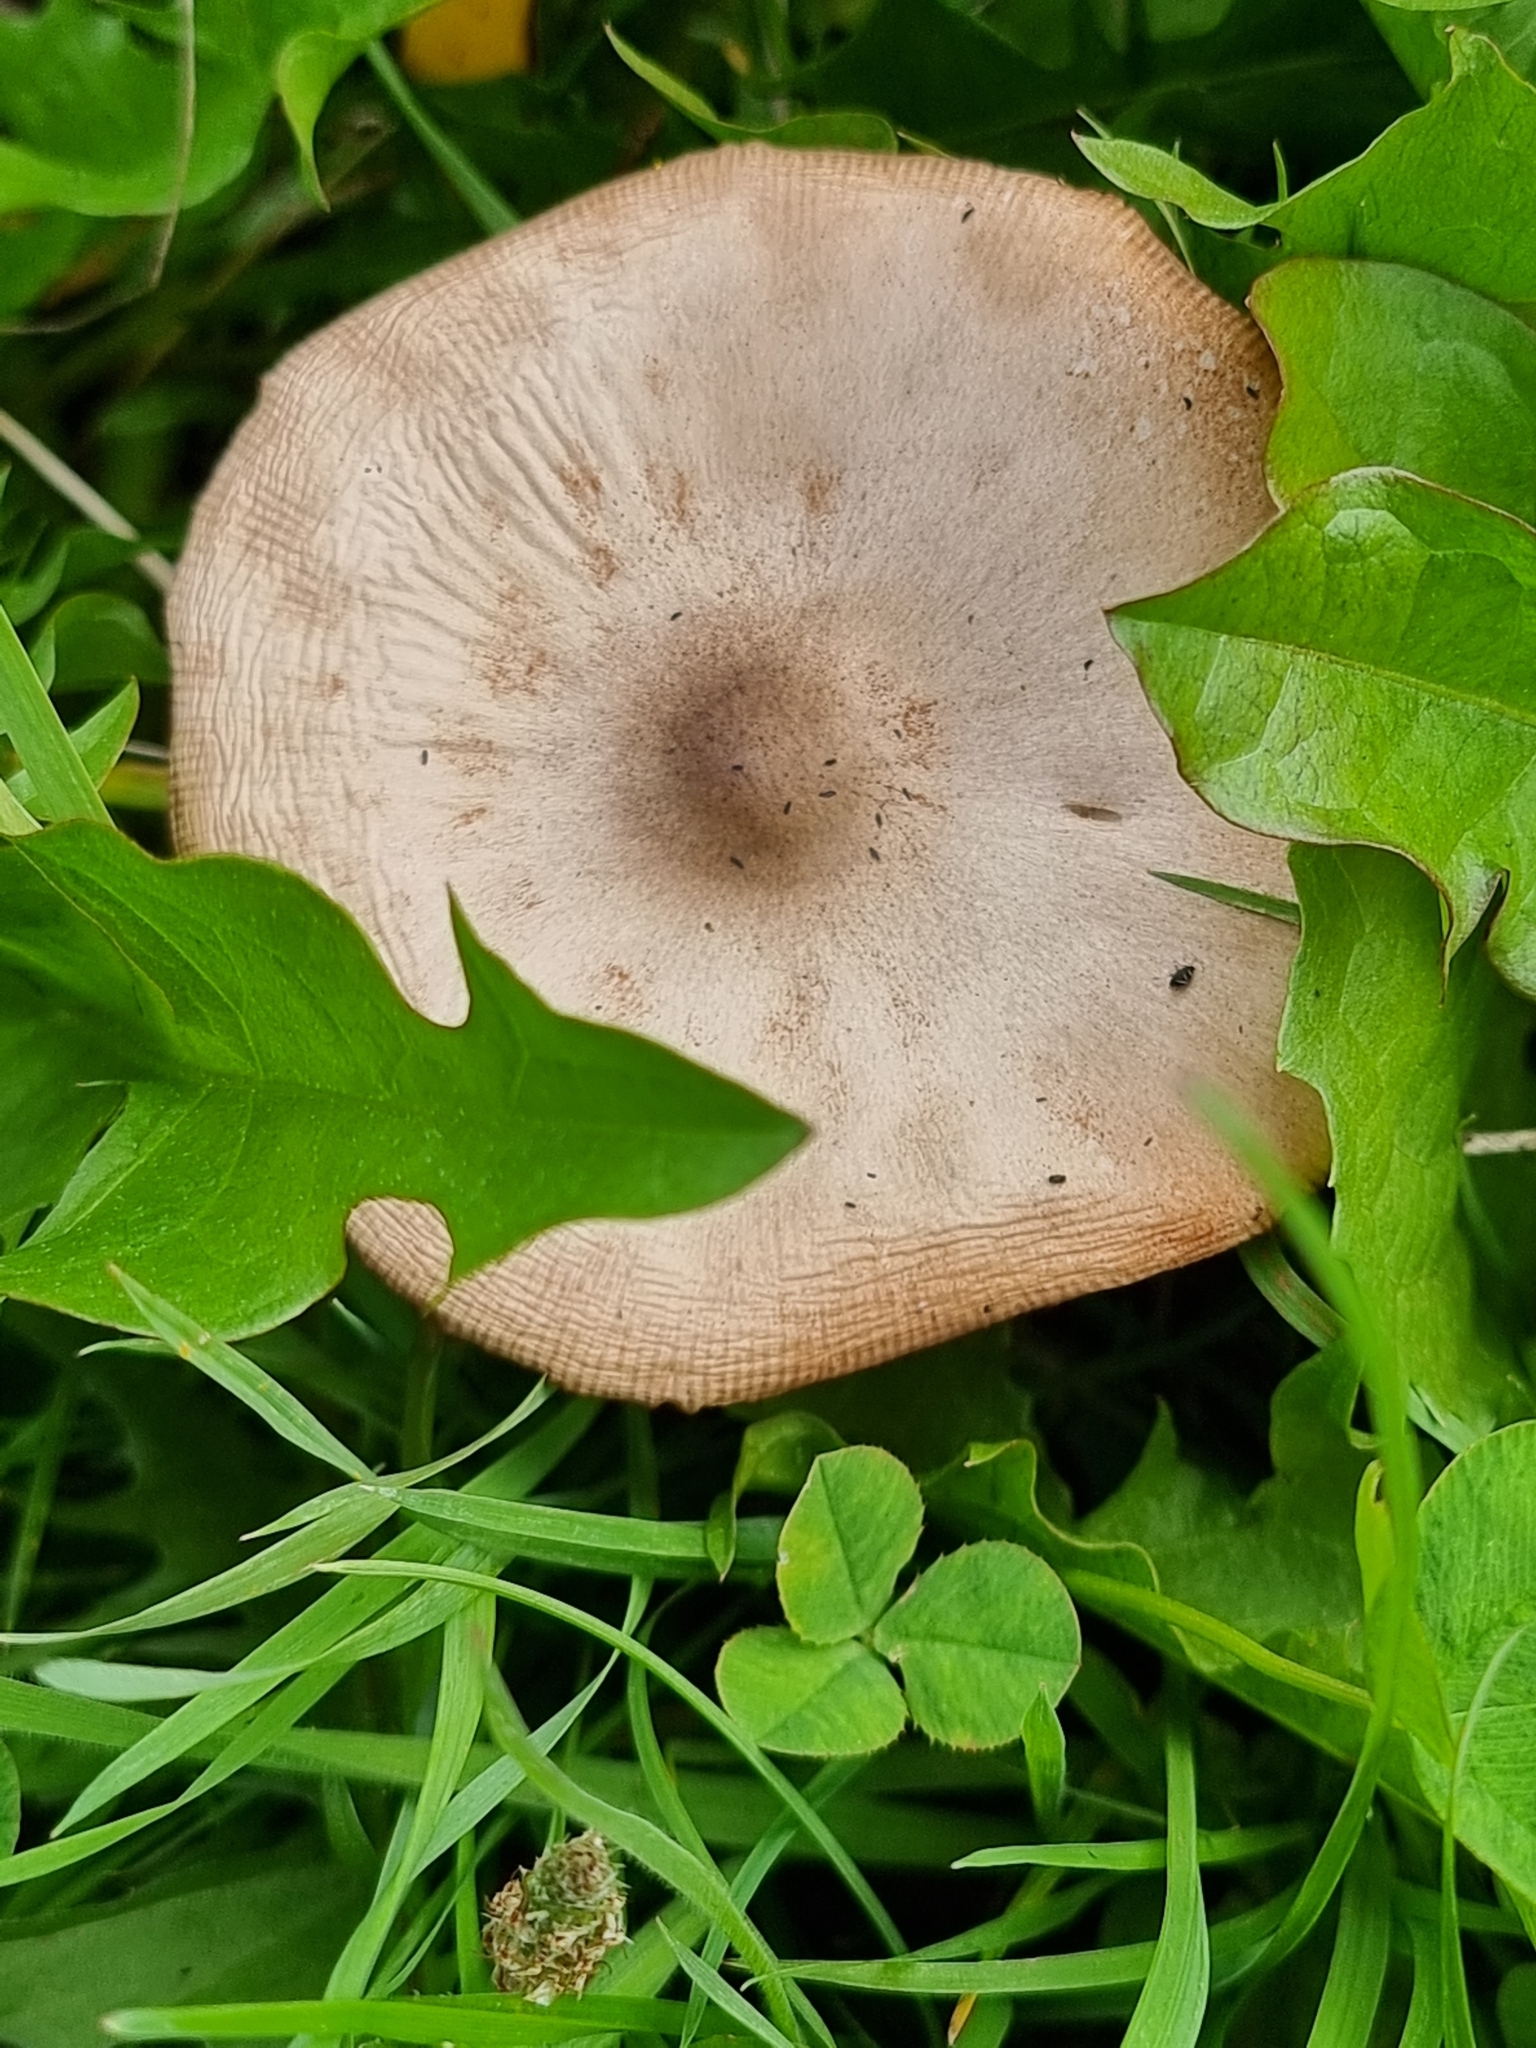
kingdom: Fungi
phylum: Basidiomycota
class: Agaricomycetes
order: Agaricales
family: Pluteaceae
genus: Volvopluteus
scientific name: Volvopluteus gloiocephalus
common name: Stubble rosegill
